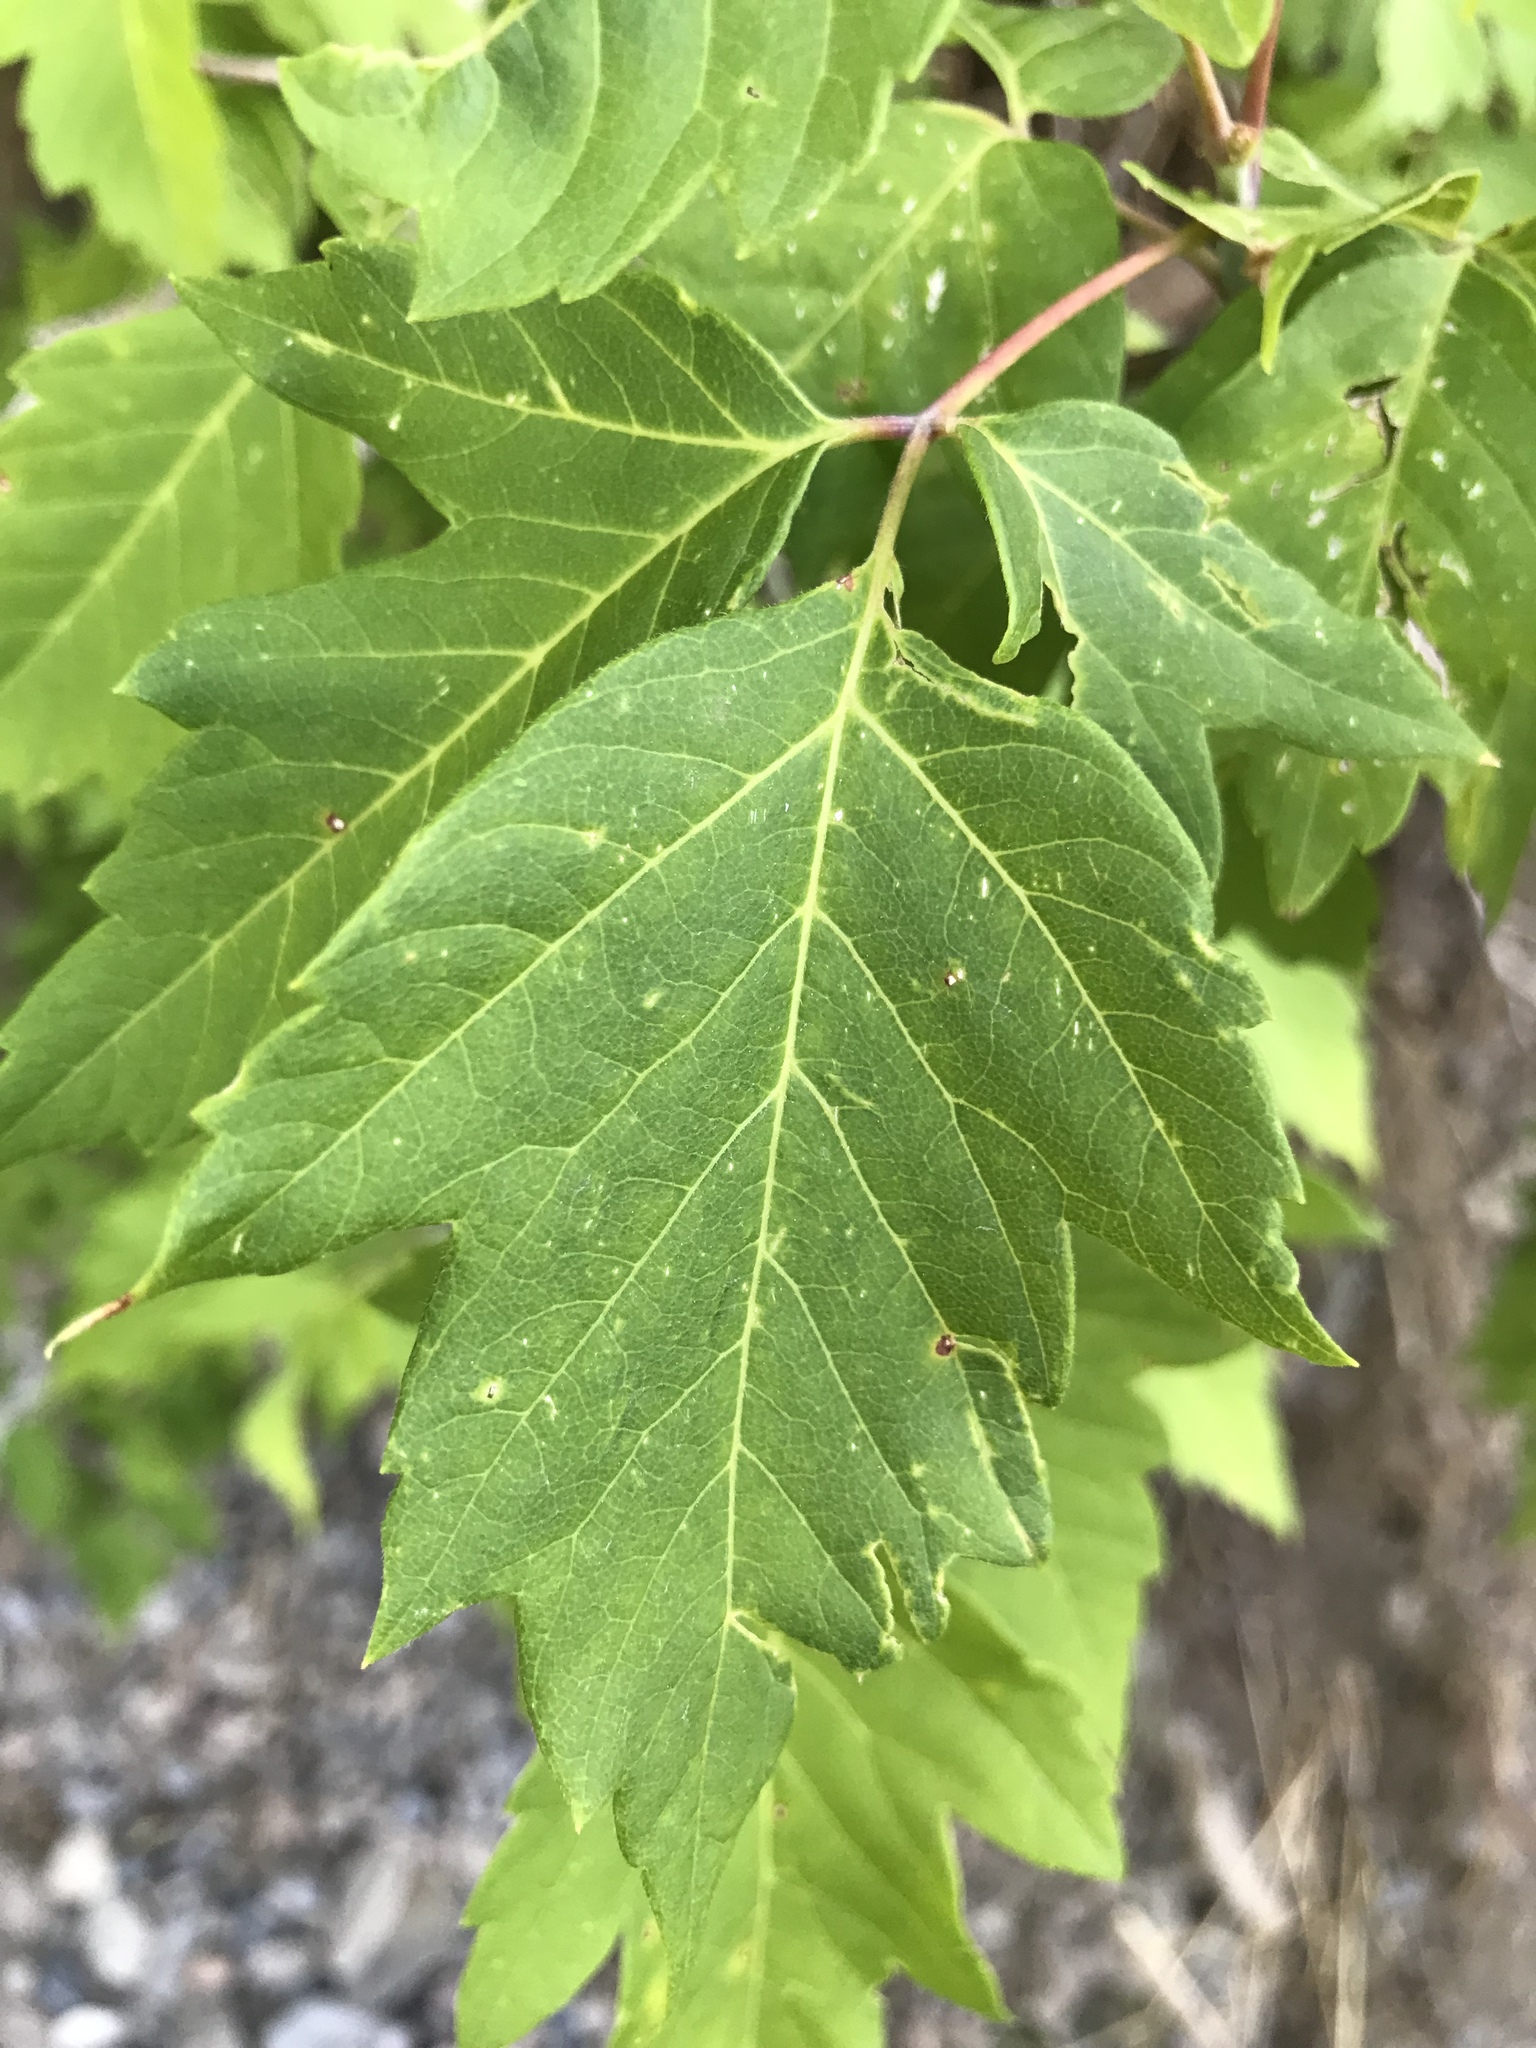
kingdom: Plantae
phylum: Tracheophyta
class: Magnoliopsida
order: Sapindales
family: Sapindaceae
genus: Acer
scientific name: Acer negundo
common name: Ashleaf maple
